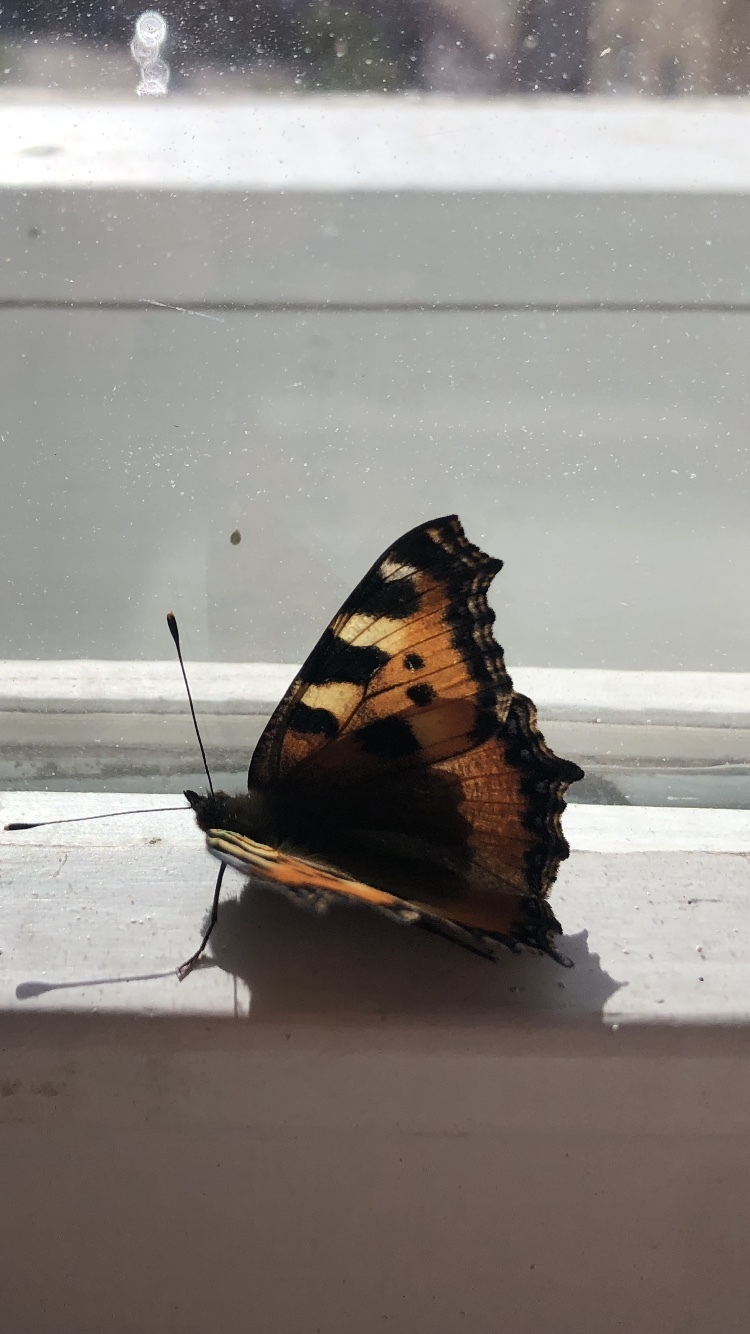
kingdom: Animalia
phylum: Arthropoda
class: Insecta
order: Lepidoptera
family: Nymphalidae
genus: Aglais
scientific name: Aglais urticae
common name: Small tortoiseshell
